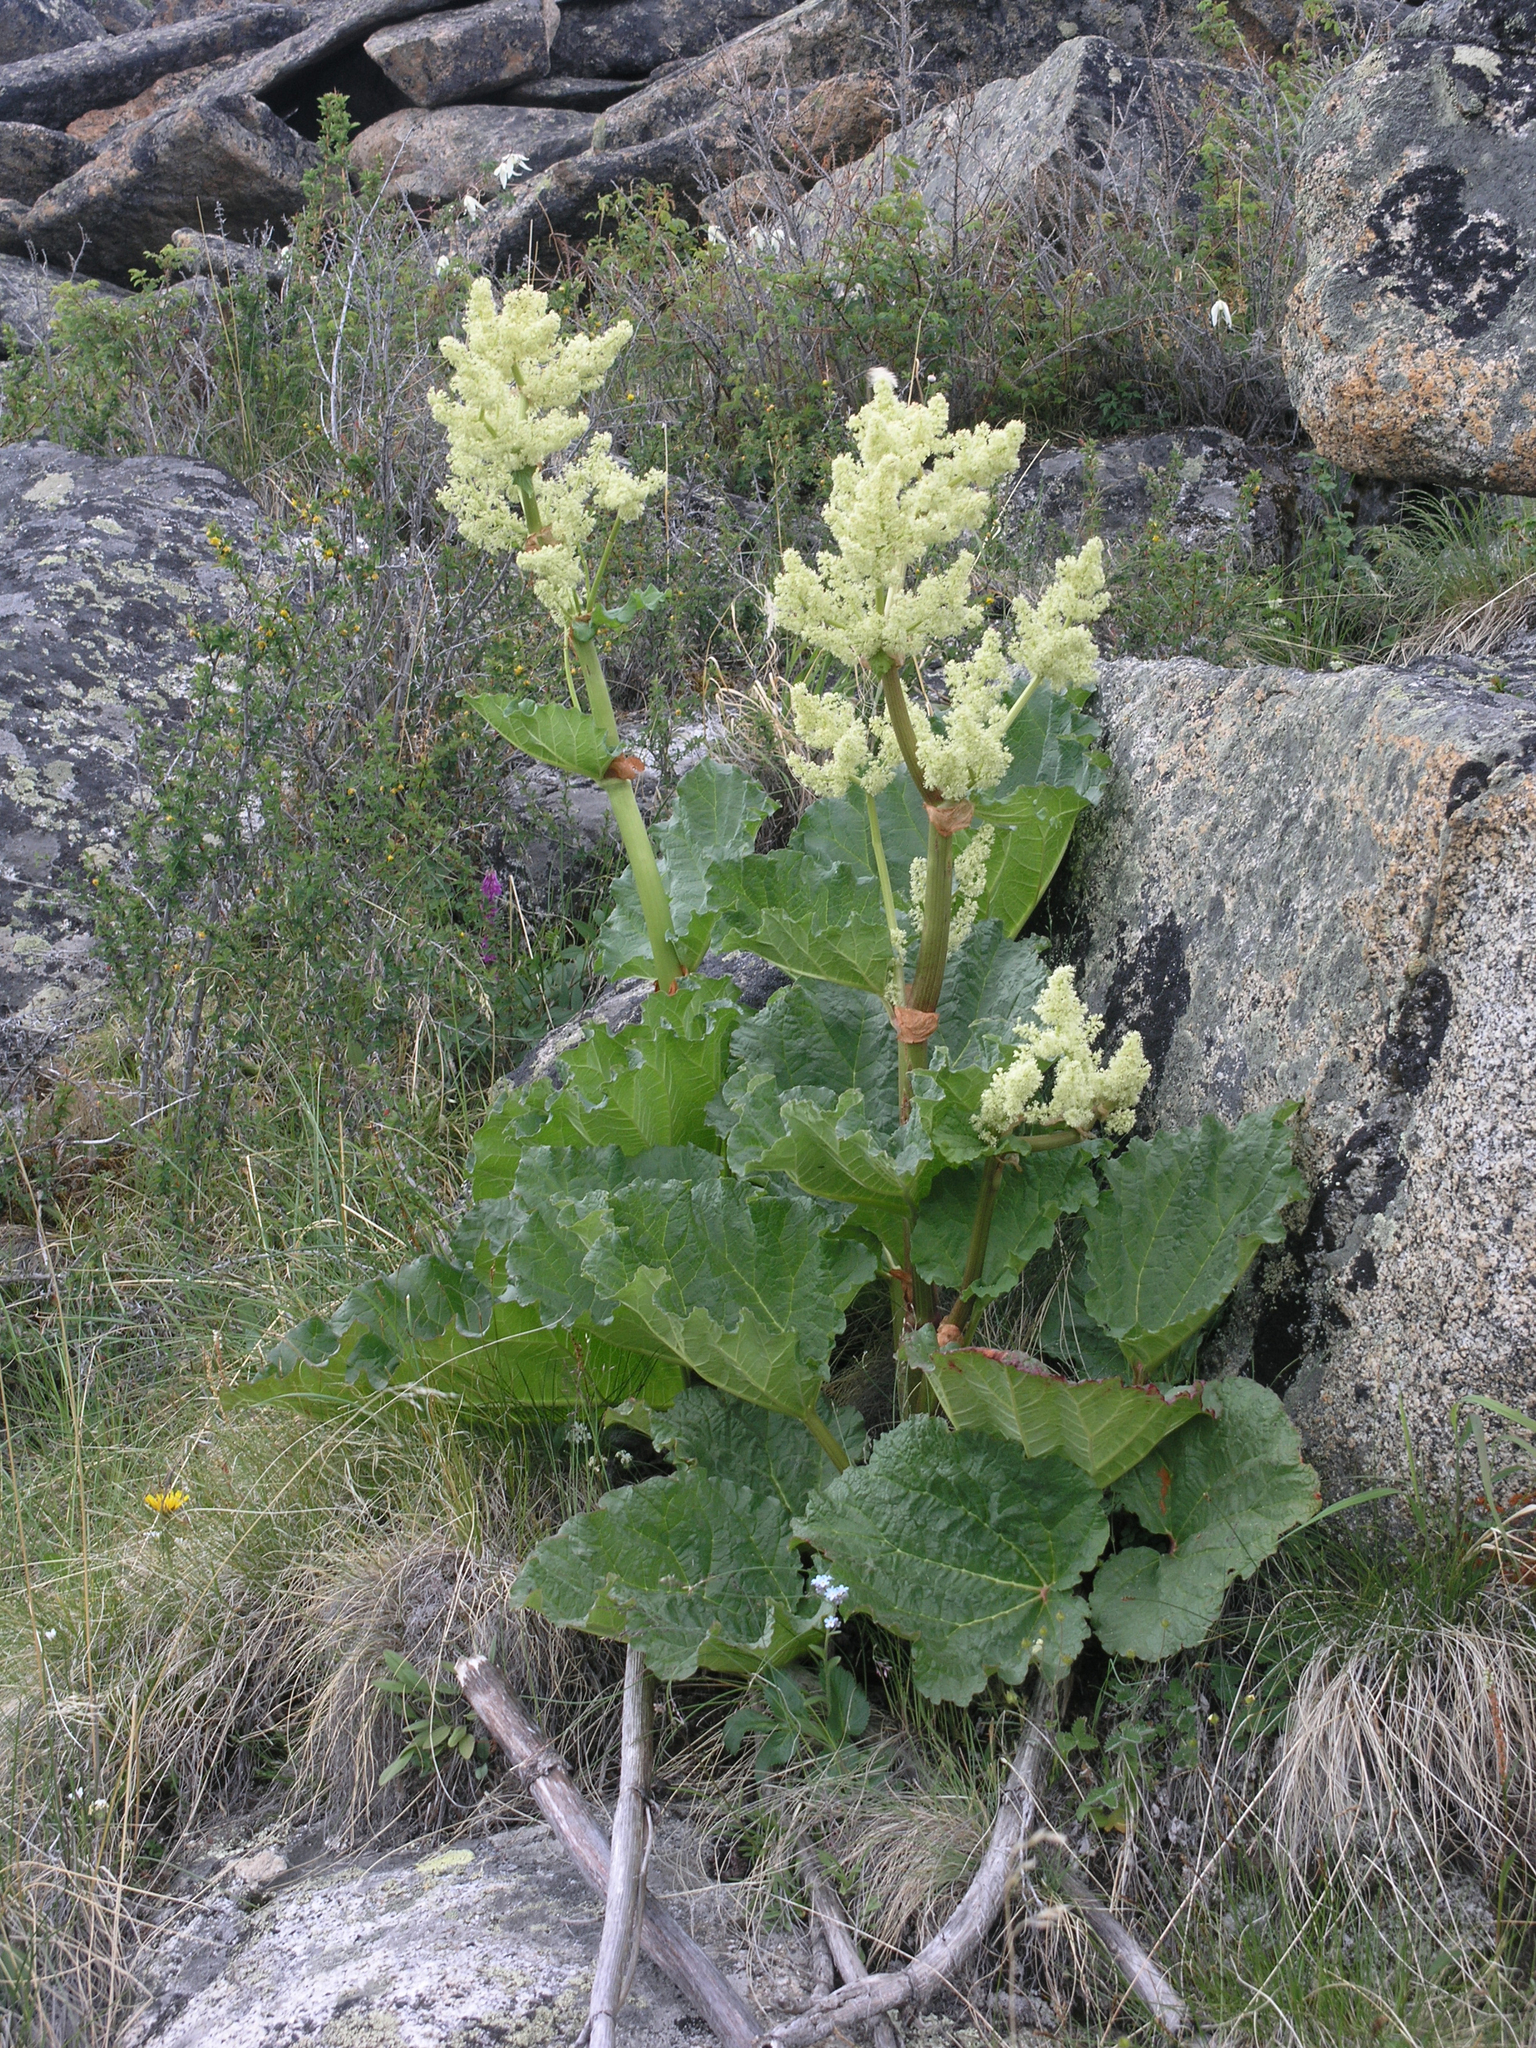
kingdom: Plantae
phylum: Tracheophyta
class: Magnoliopsida
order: Caryophyllales
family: Polygonaceae
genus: Rheum
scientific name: Rheum compactum
